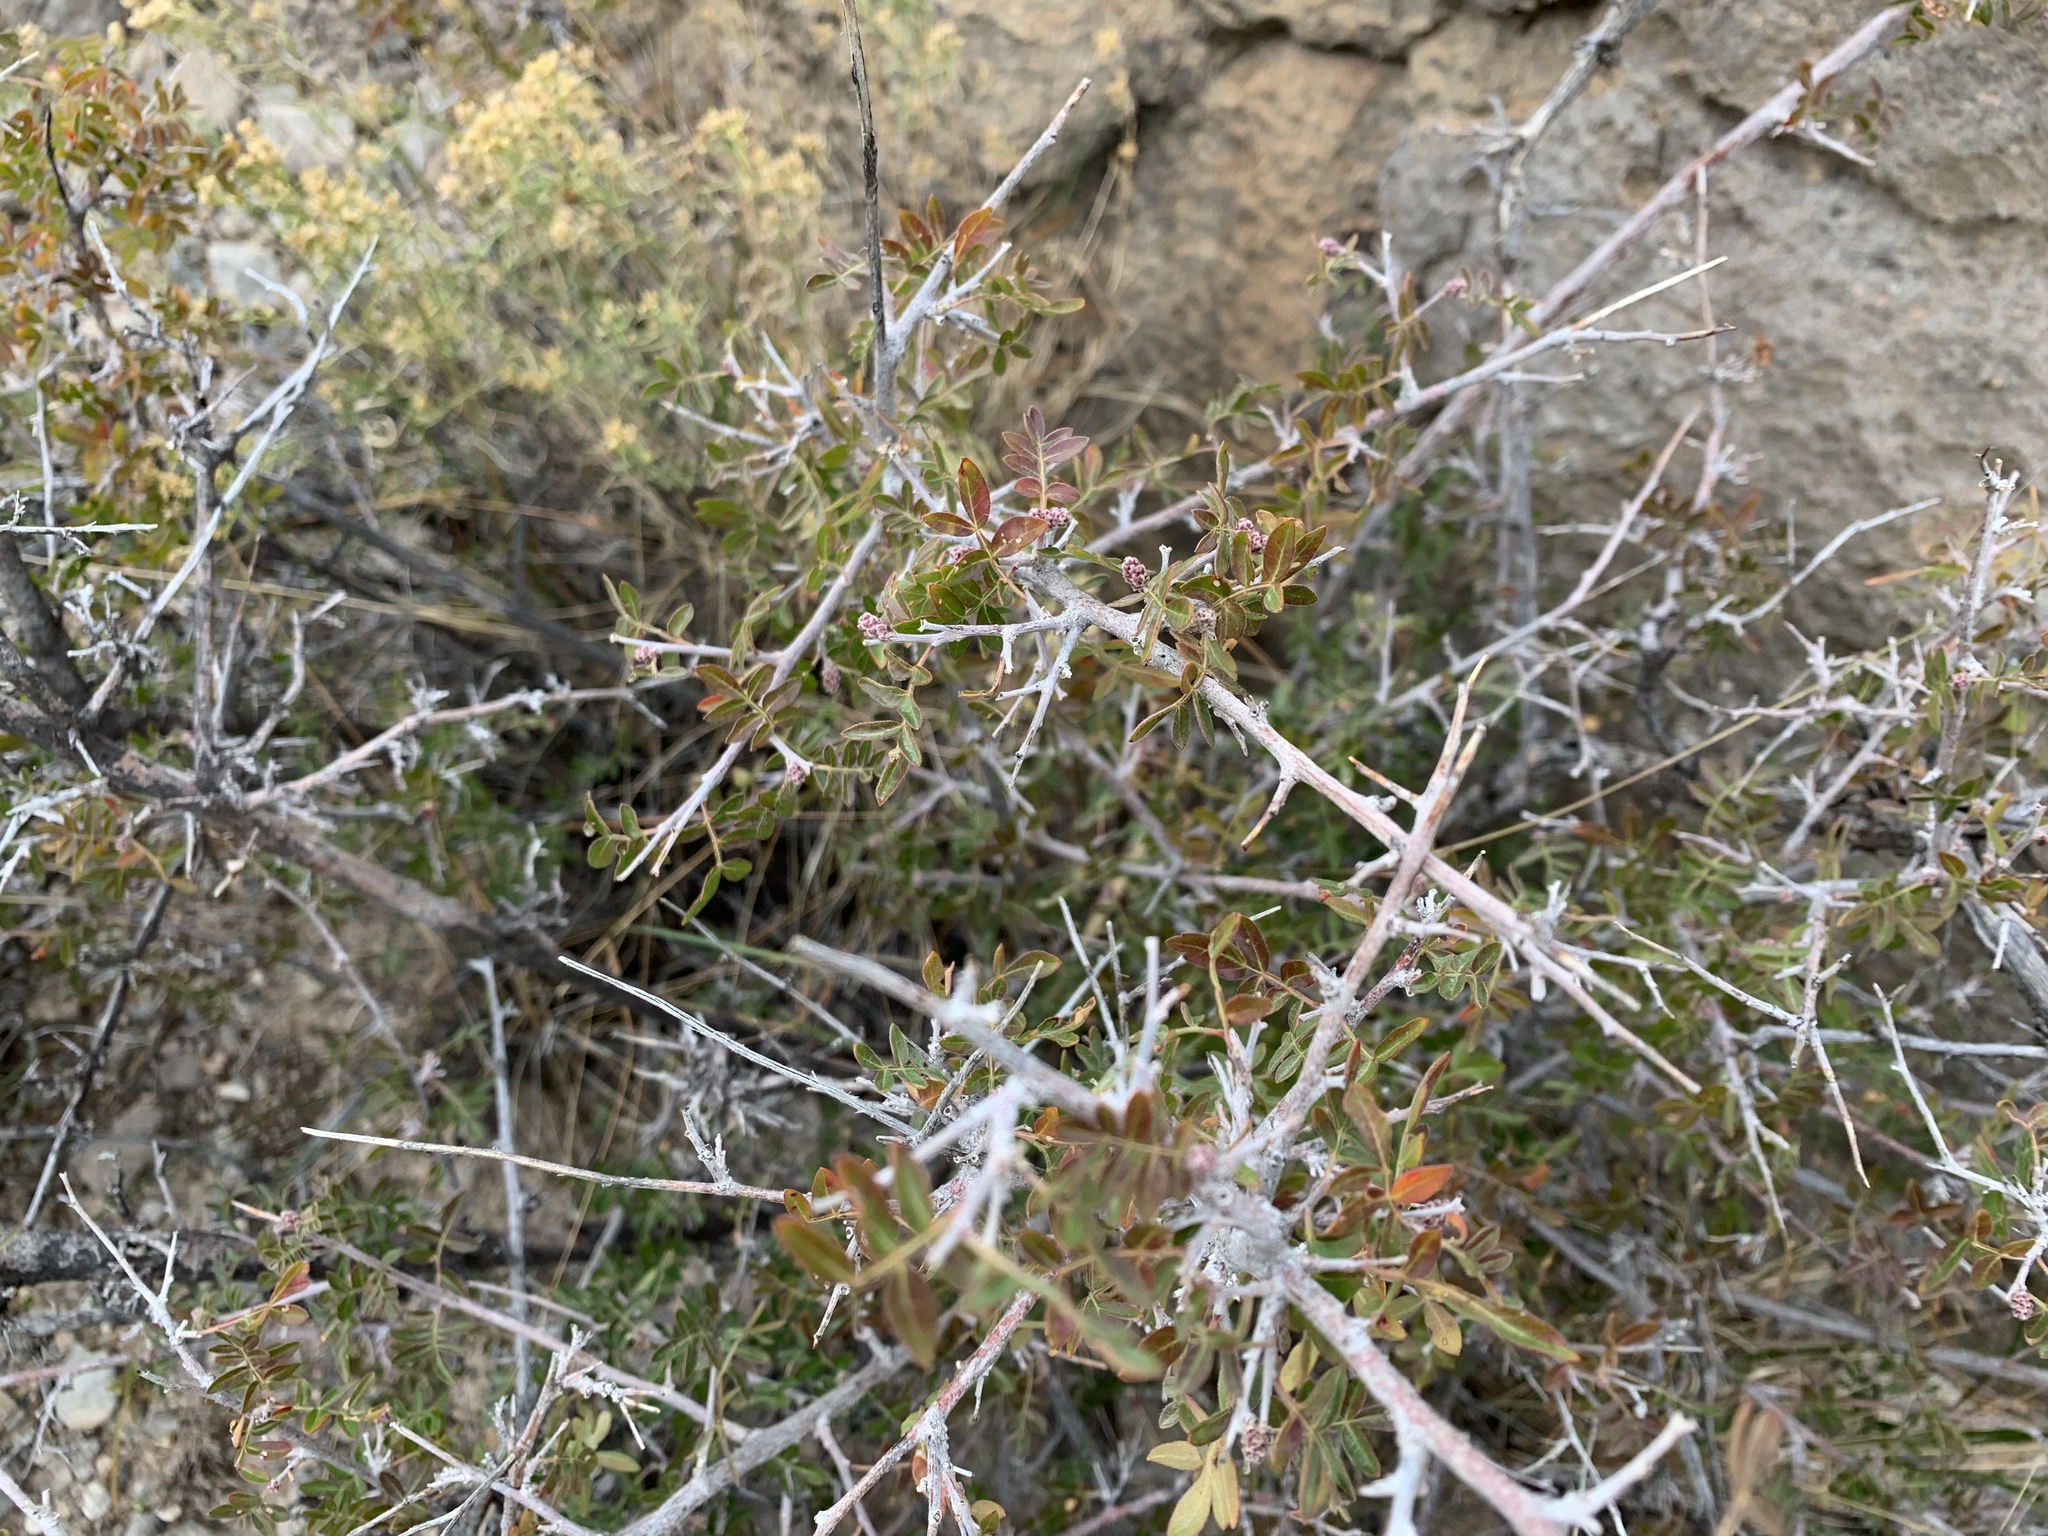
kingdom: Plantae
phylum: Tracheophyta
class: Magnoliopsida
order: Sapindales
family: Anacardiaceae
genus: Rhus
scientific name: Rhus microphylla
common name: Desert sumac
